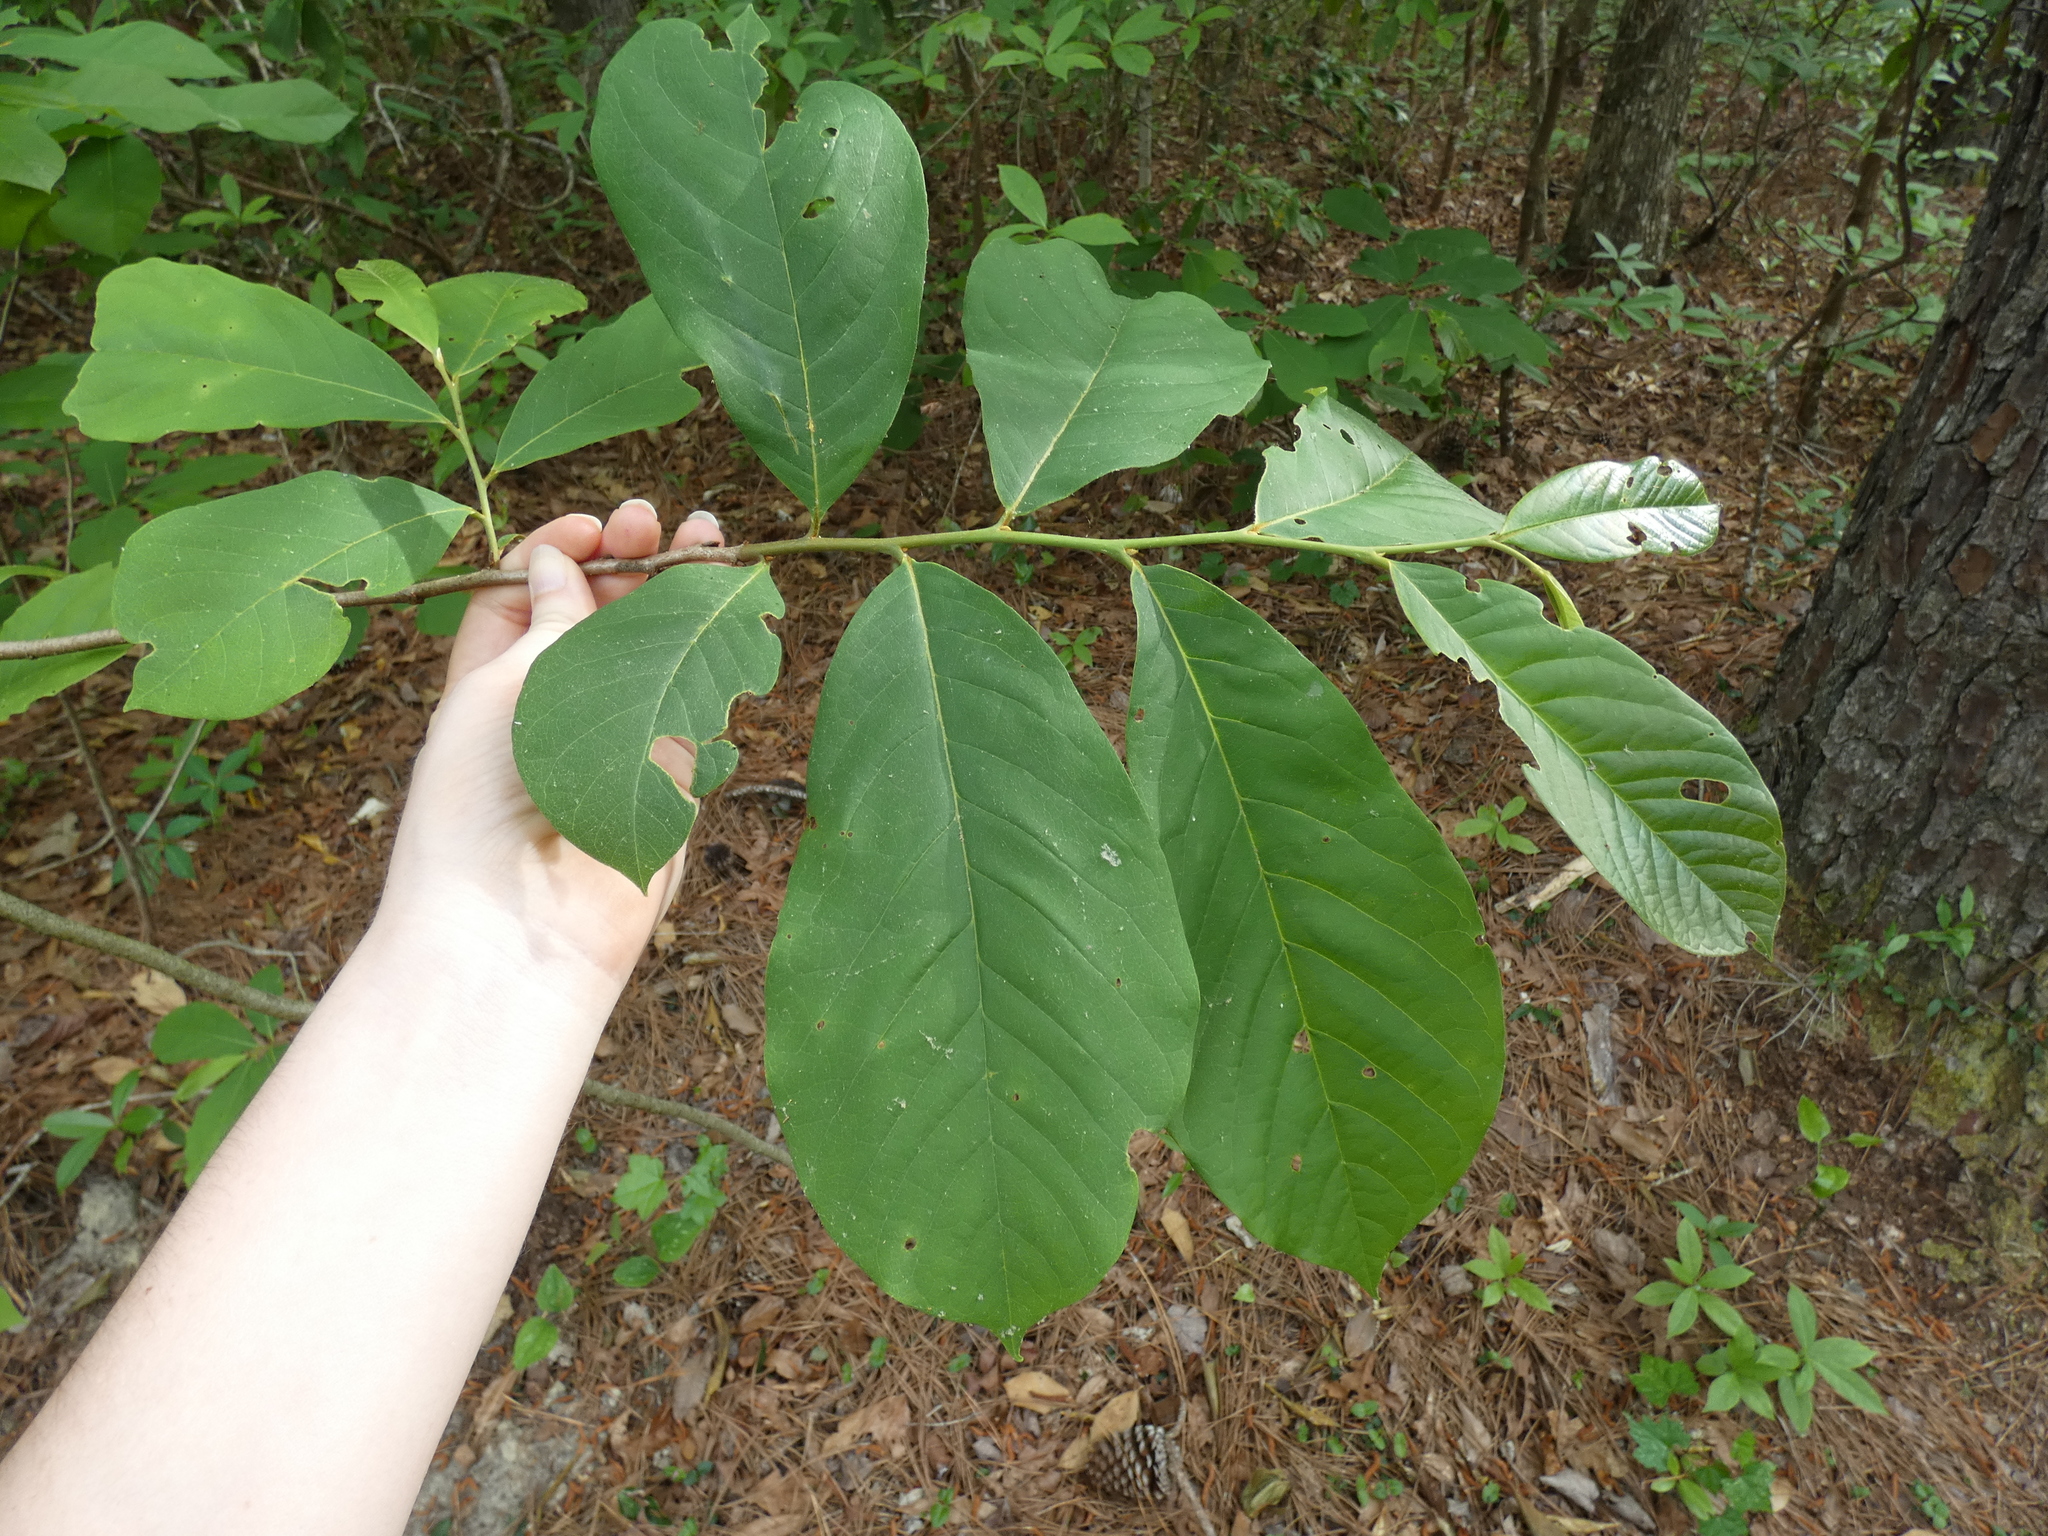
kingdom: Plantae
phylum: Tracheophyta
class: Magnoliopsida
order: Magnoliales
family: Annonaceae
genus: Asimina
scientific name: Asimina parviflora
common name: Dwarf pawpaw
